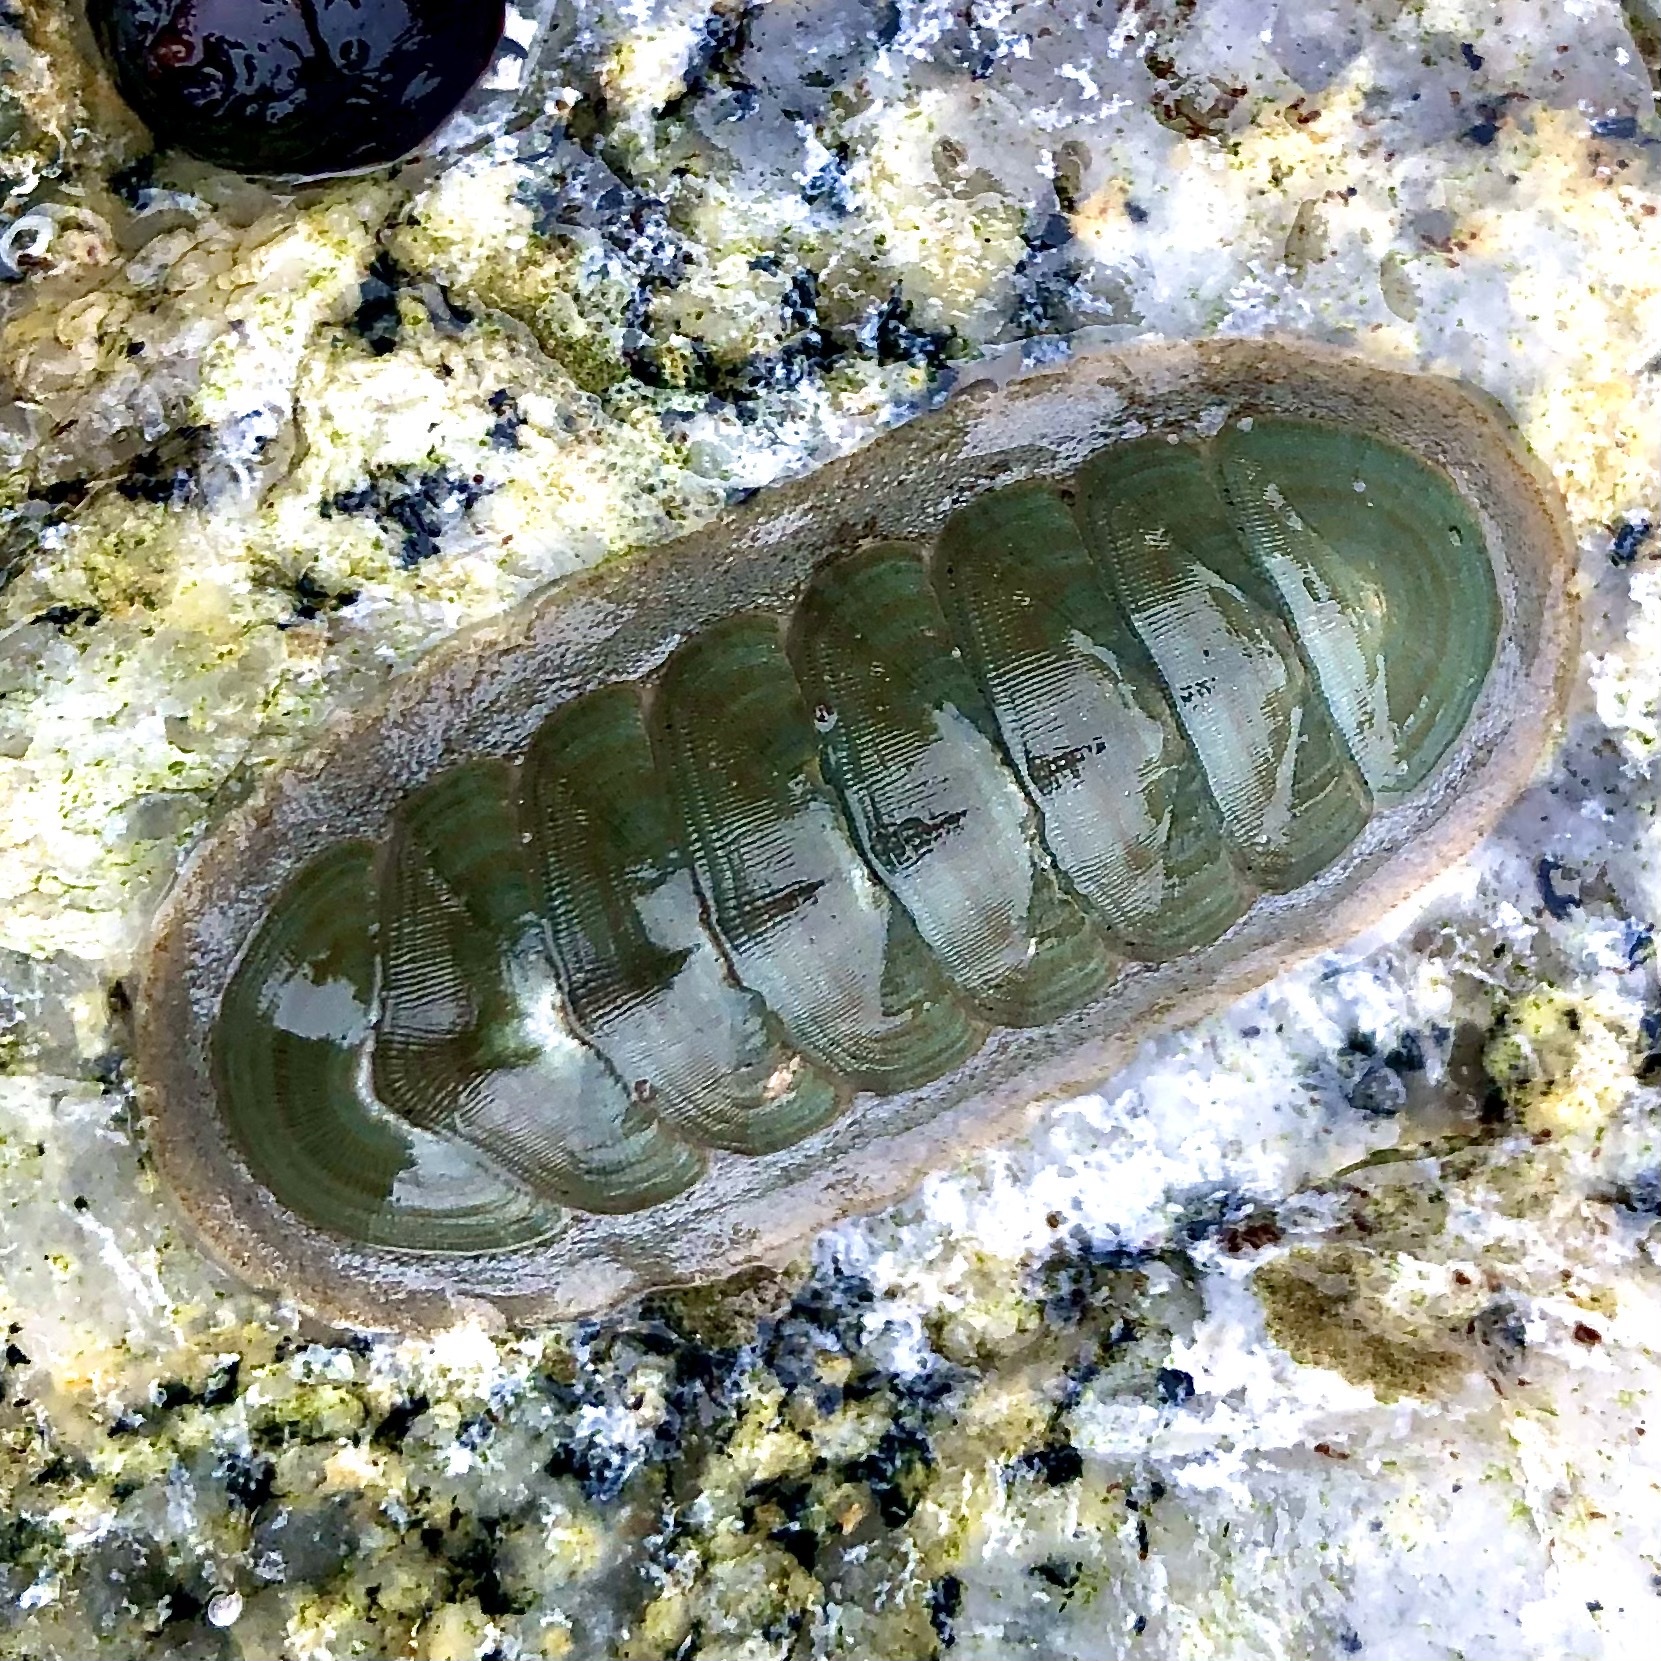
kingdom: Animalia
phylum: Mollusca
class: Polyplacophora
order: Chitonida
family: Ischnochitonidae
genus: Tripoplax
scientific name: Tripoplax regularis
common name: Regular chiton
